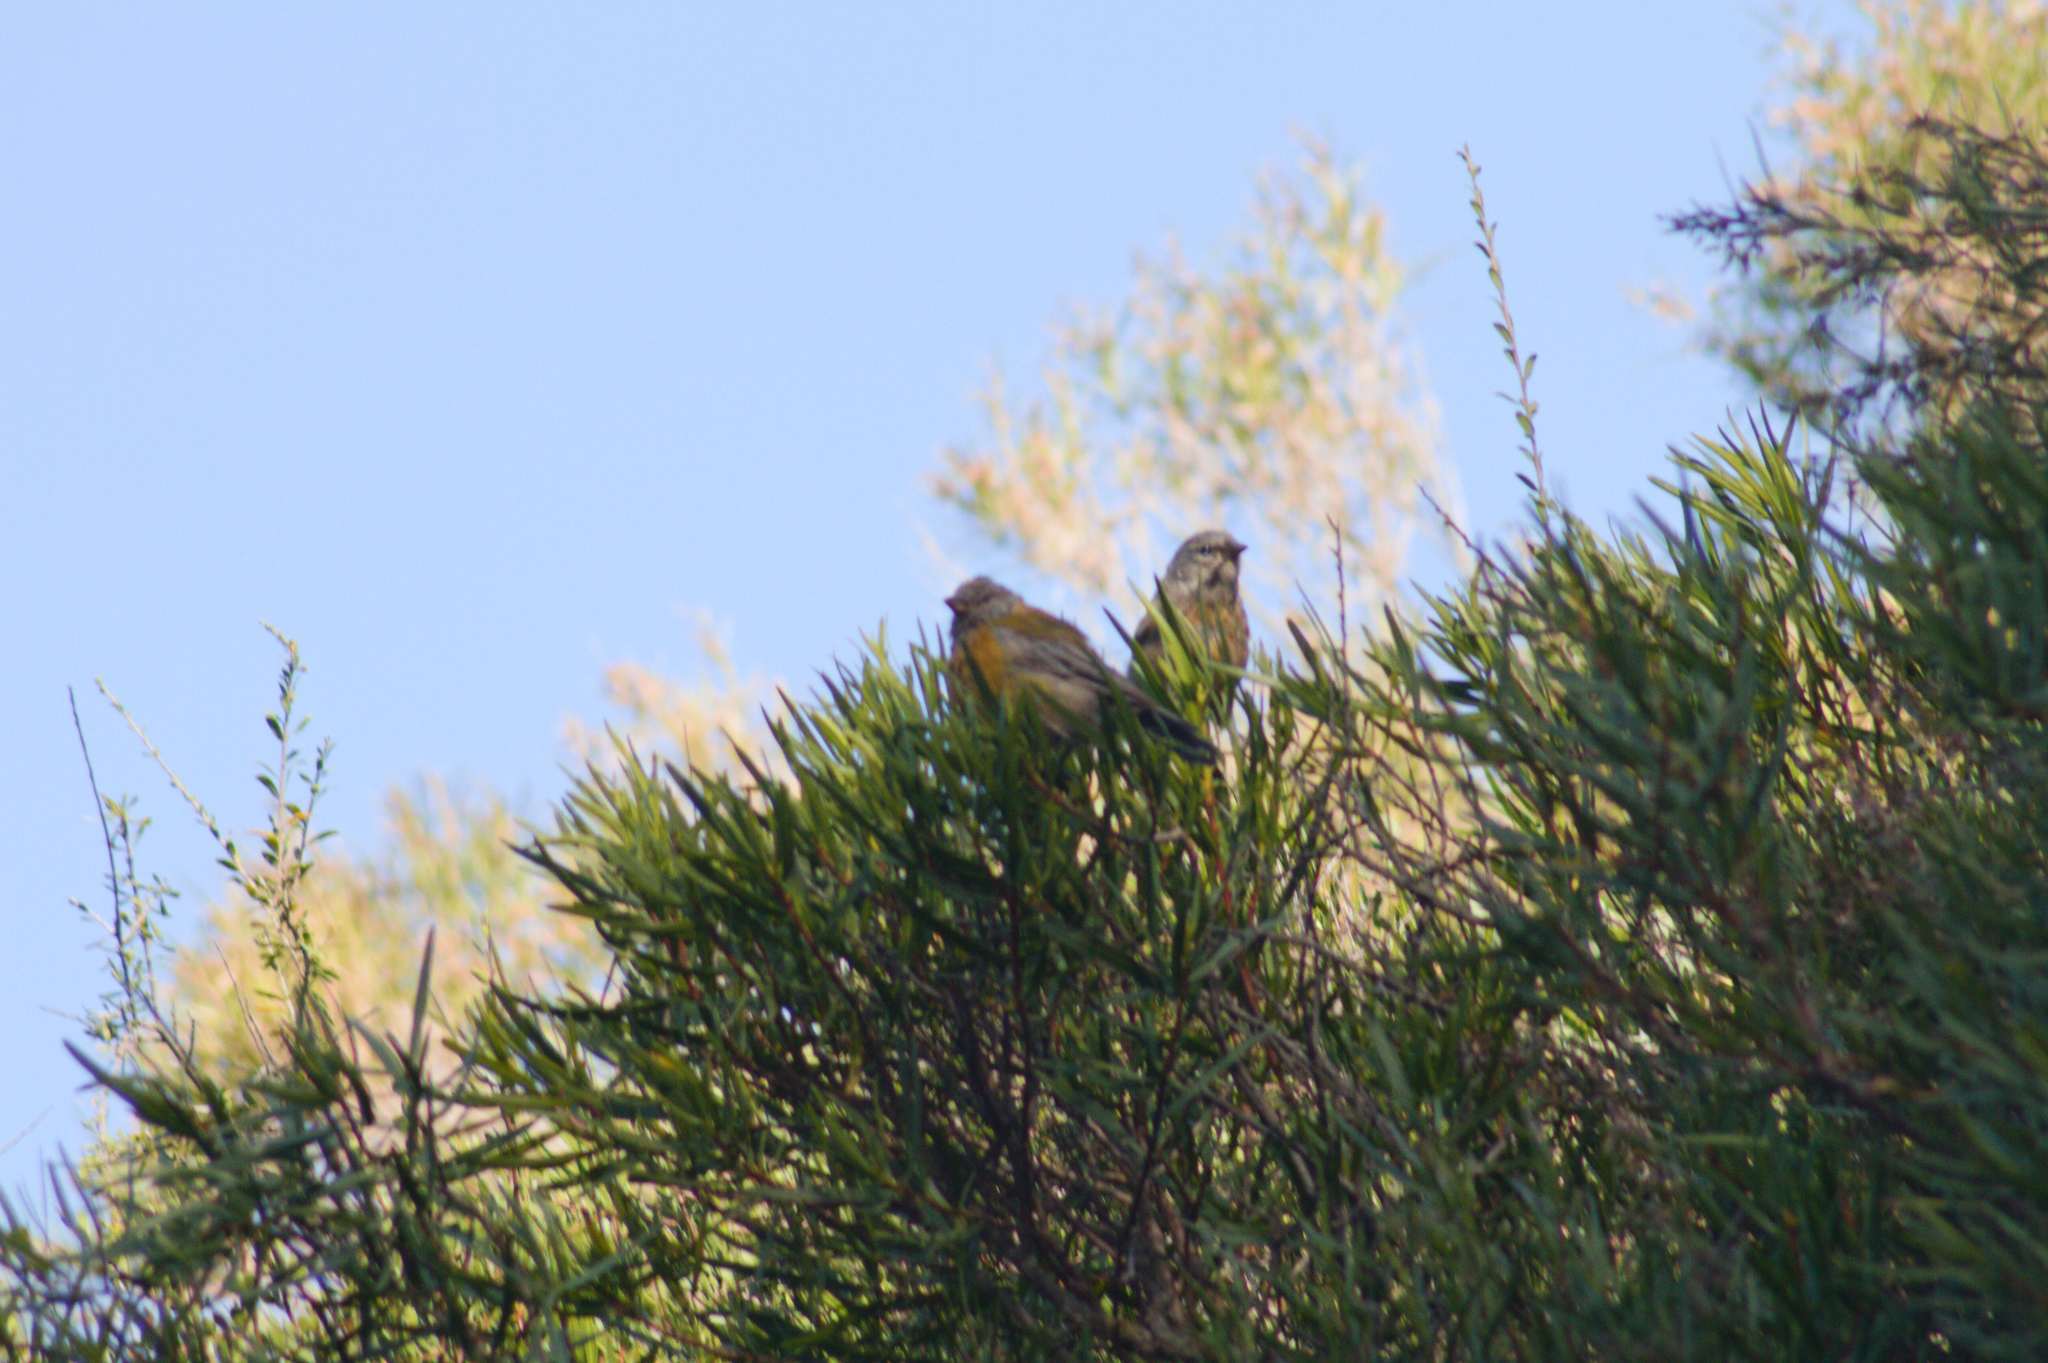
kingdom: Animalia
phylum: Chordata
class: Aves
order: Passeriformes
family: Thraupidae
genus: Phrygilus
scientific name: Phrygilus gayi
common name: Grey-hooded sierra finch
